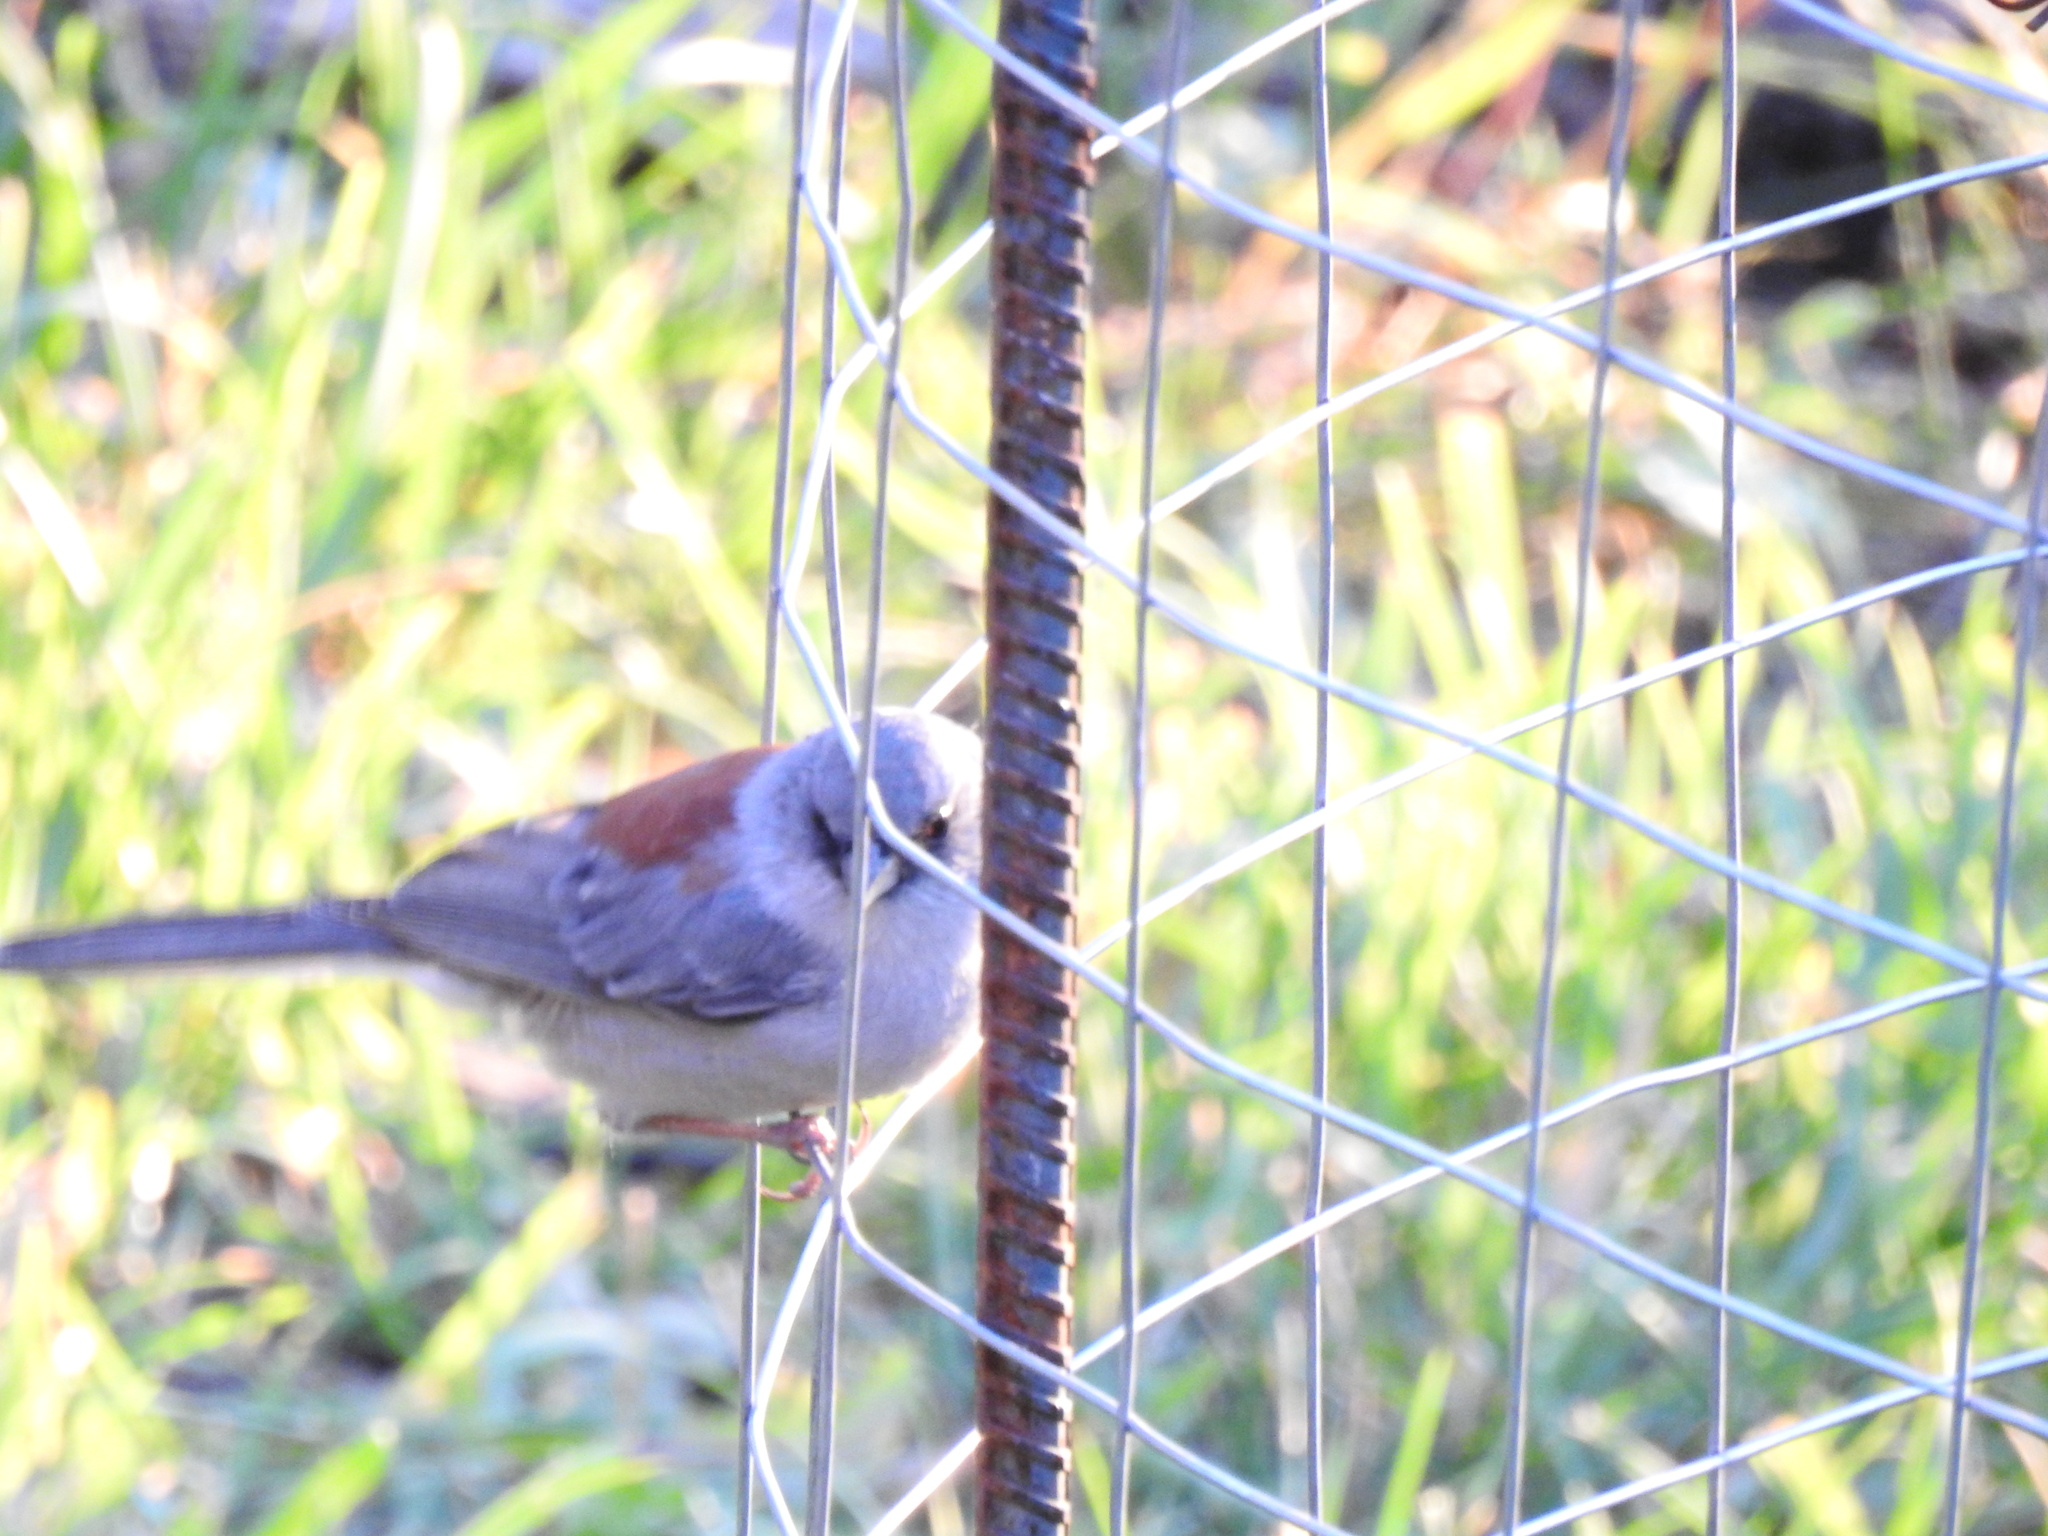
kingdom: Animalia
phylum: Chordata
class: Aves
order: Passeriformes
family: Passerellidae
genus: Junco
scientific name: Junco hyemalis
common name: Dark-eyed junco
